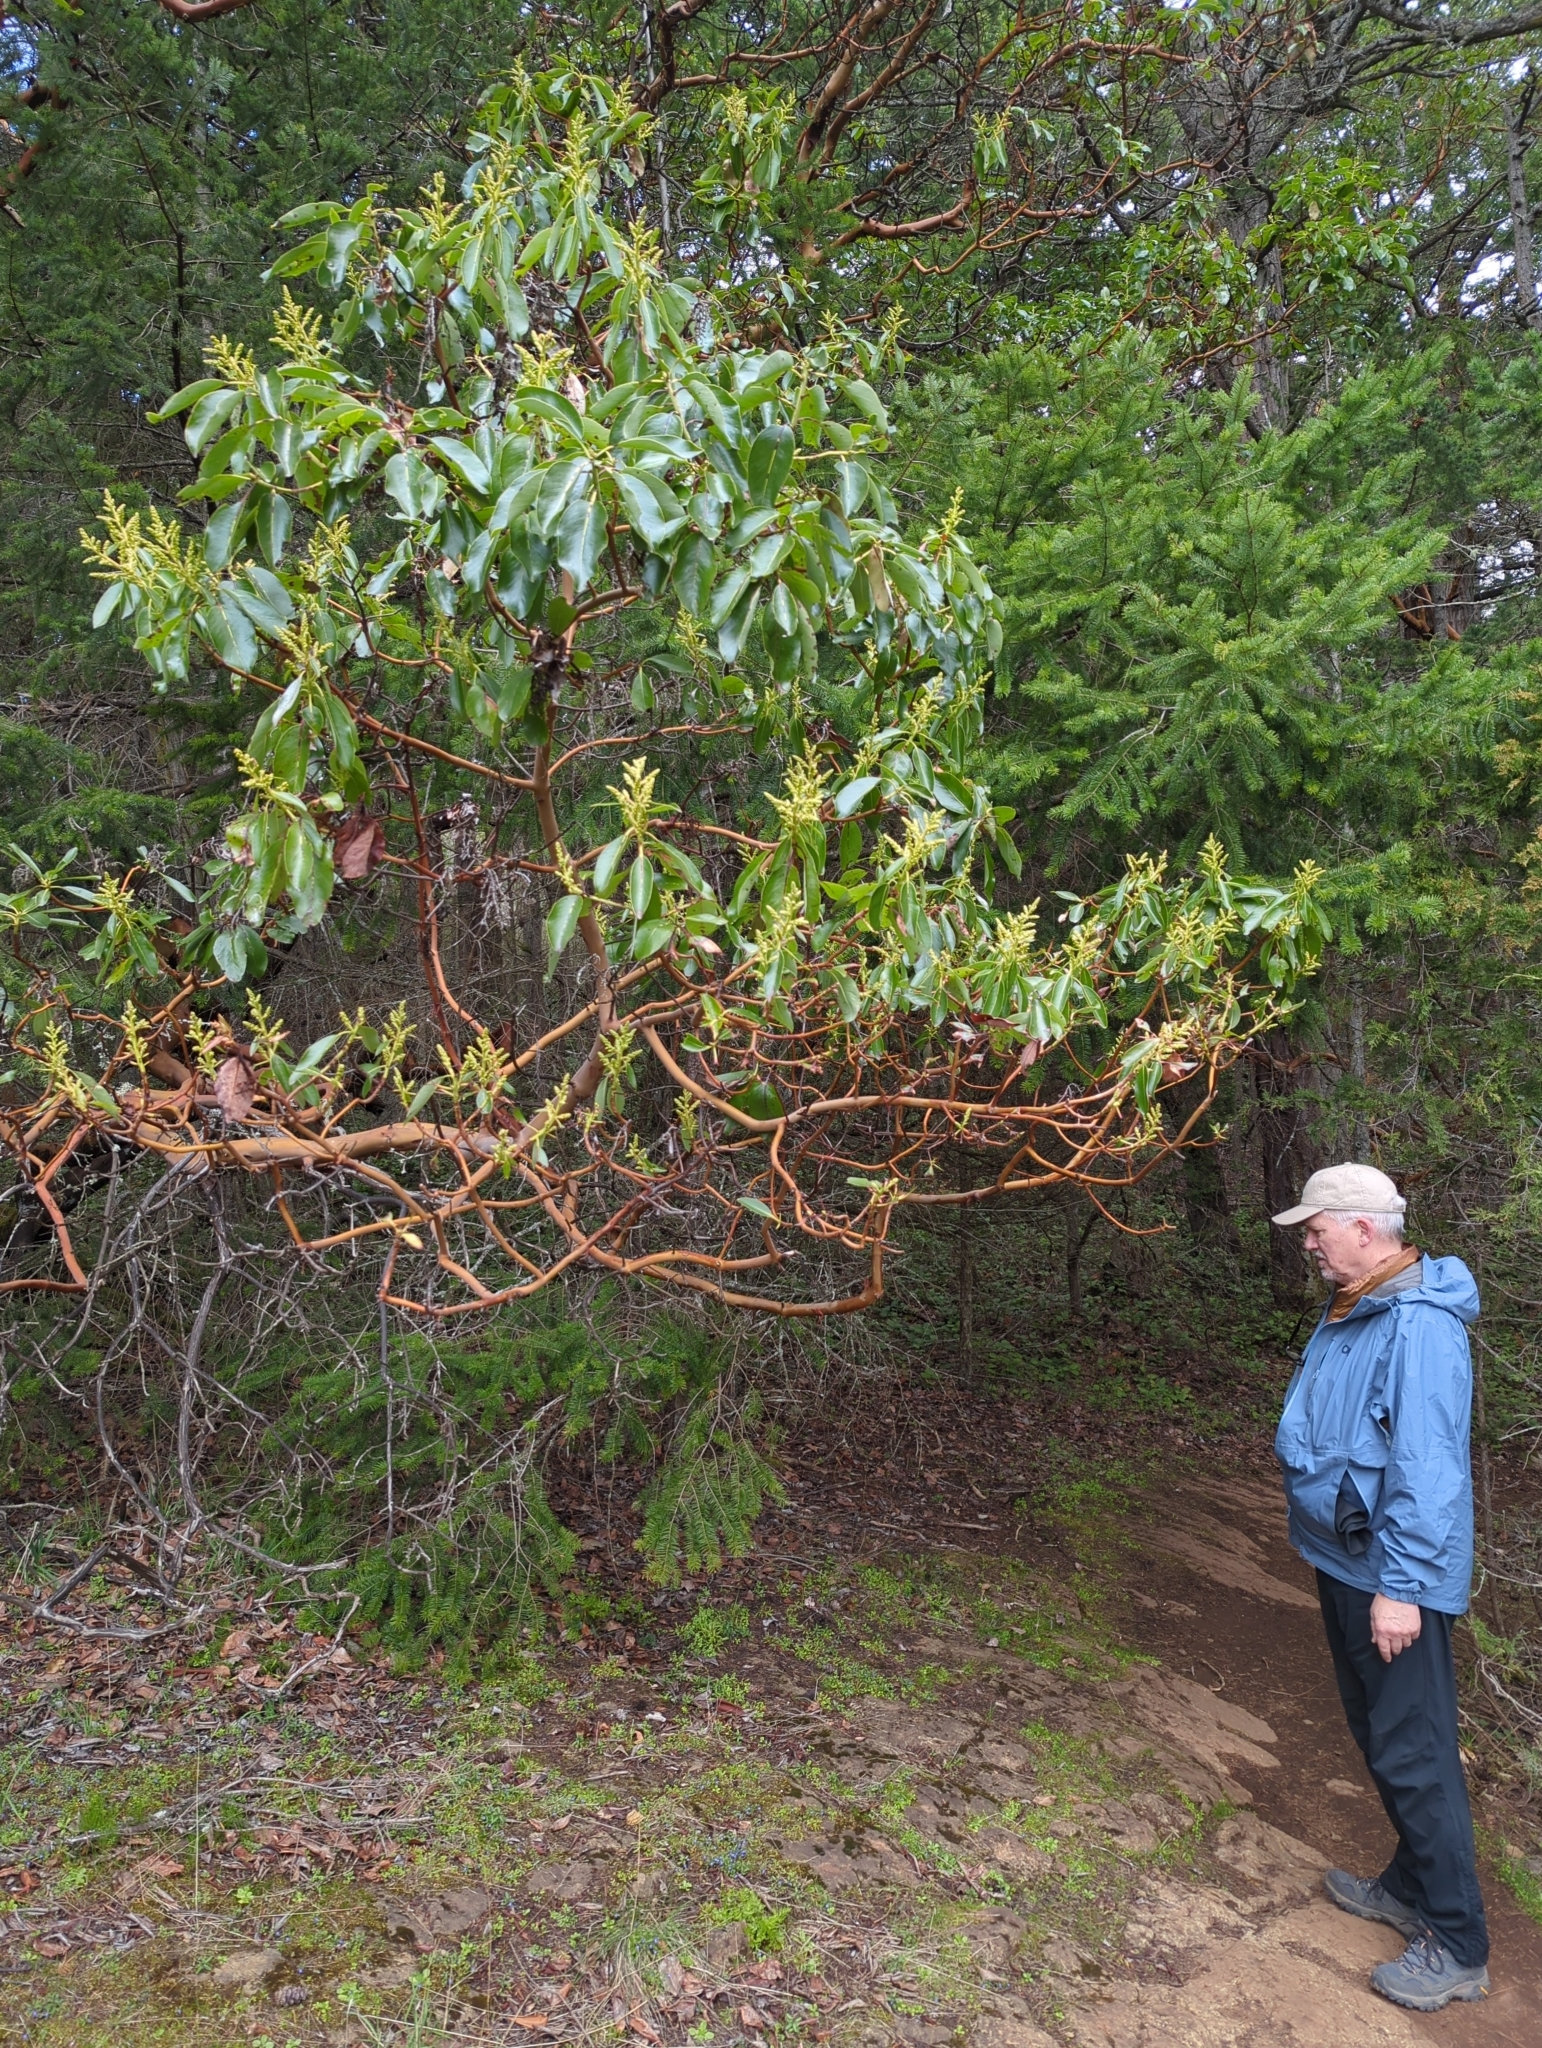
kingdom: Plantae
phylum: Tracheophyta
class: Magnoliopsida
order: Ericales
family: Ericaceae
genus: Arbutus
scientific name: Arbutus menziesii
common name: Pacific madrone
